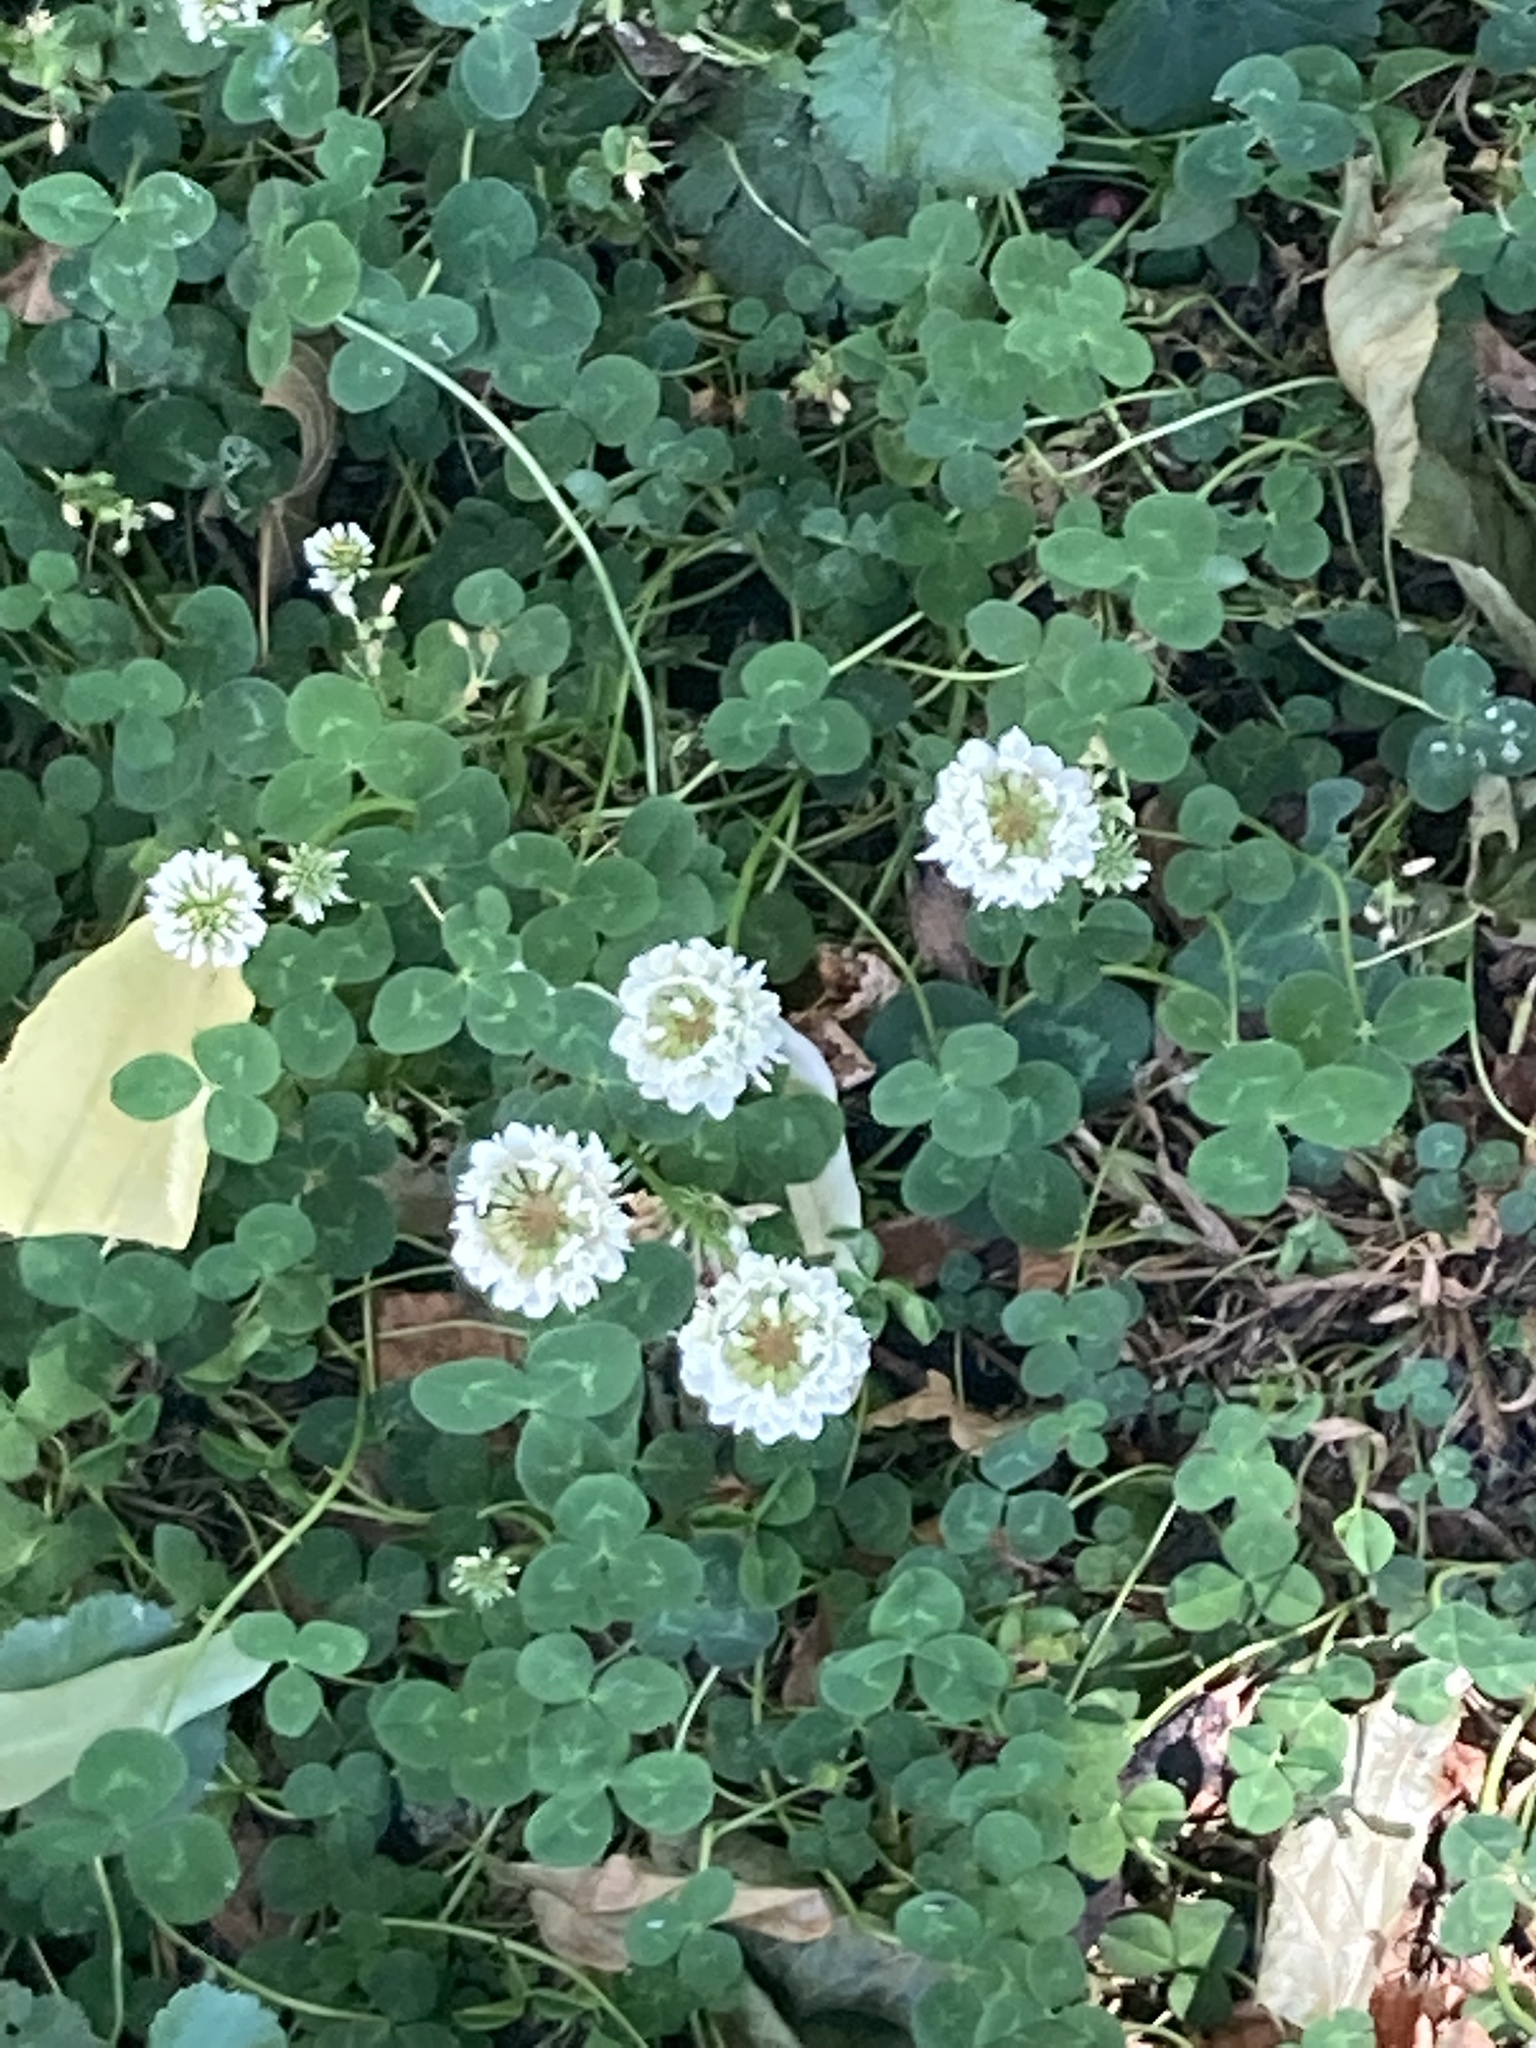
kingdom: Plantae
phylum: Tracheophyta
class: Magnoliopsida
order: Fabales
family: Fabaceae
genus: Trifolium
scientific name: Trifolium repens
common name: White clover
